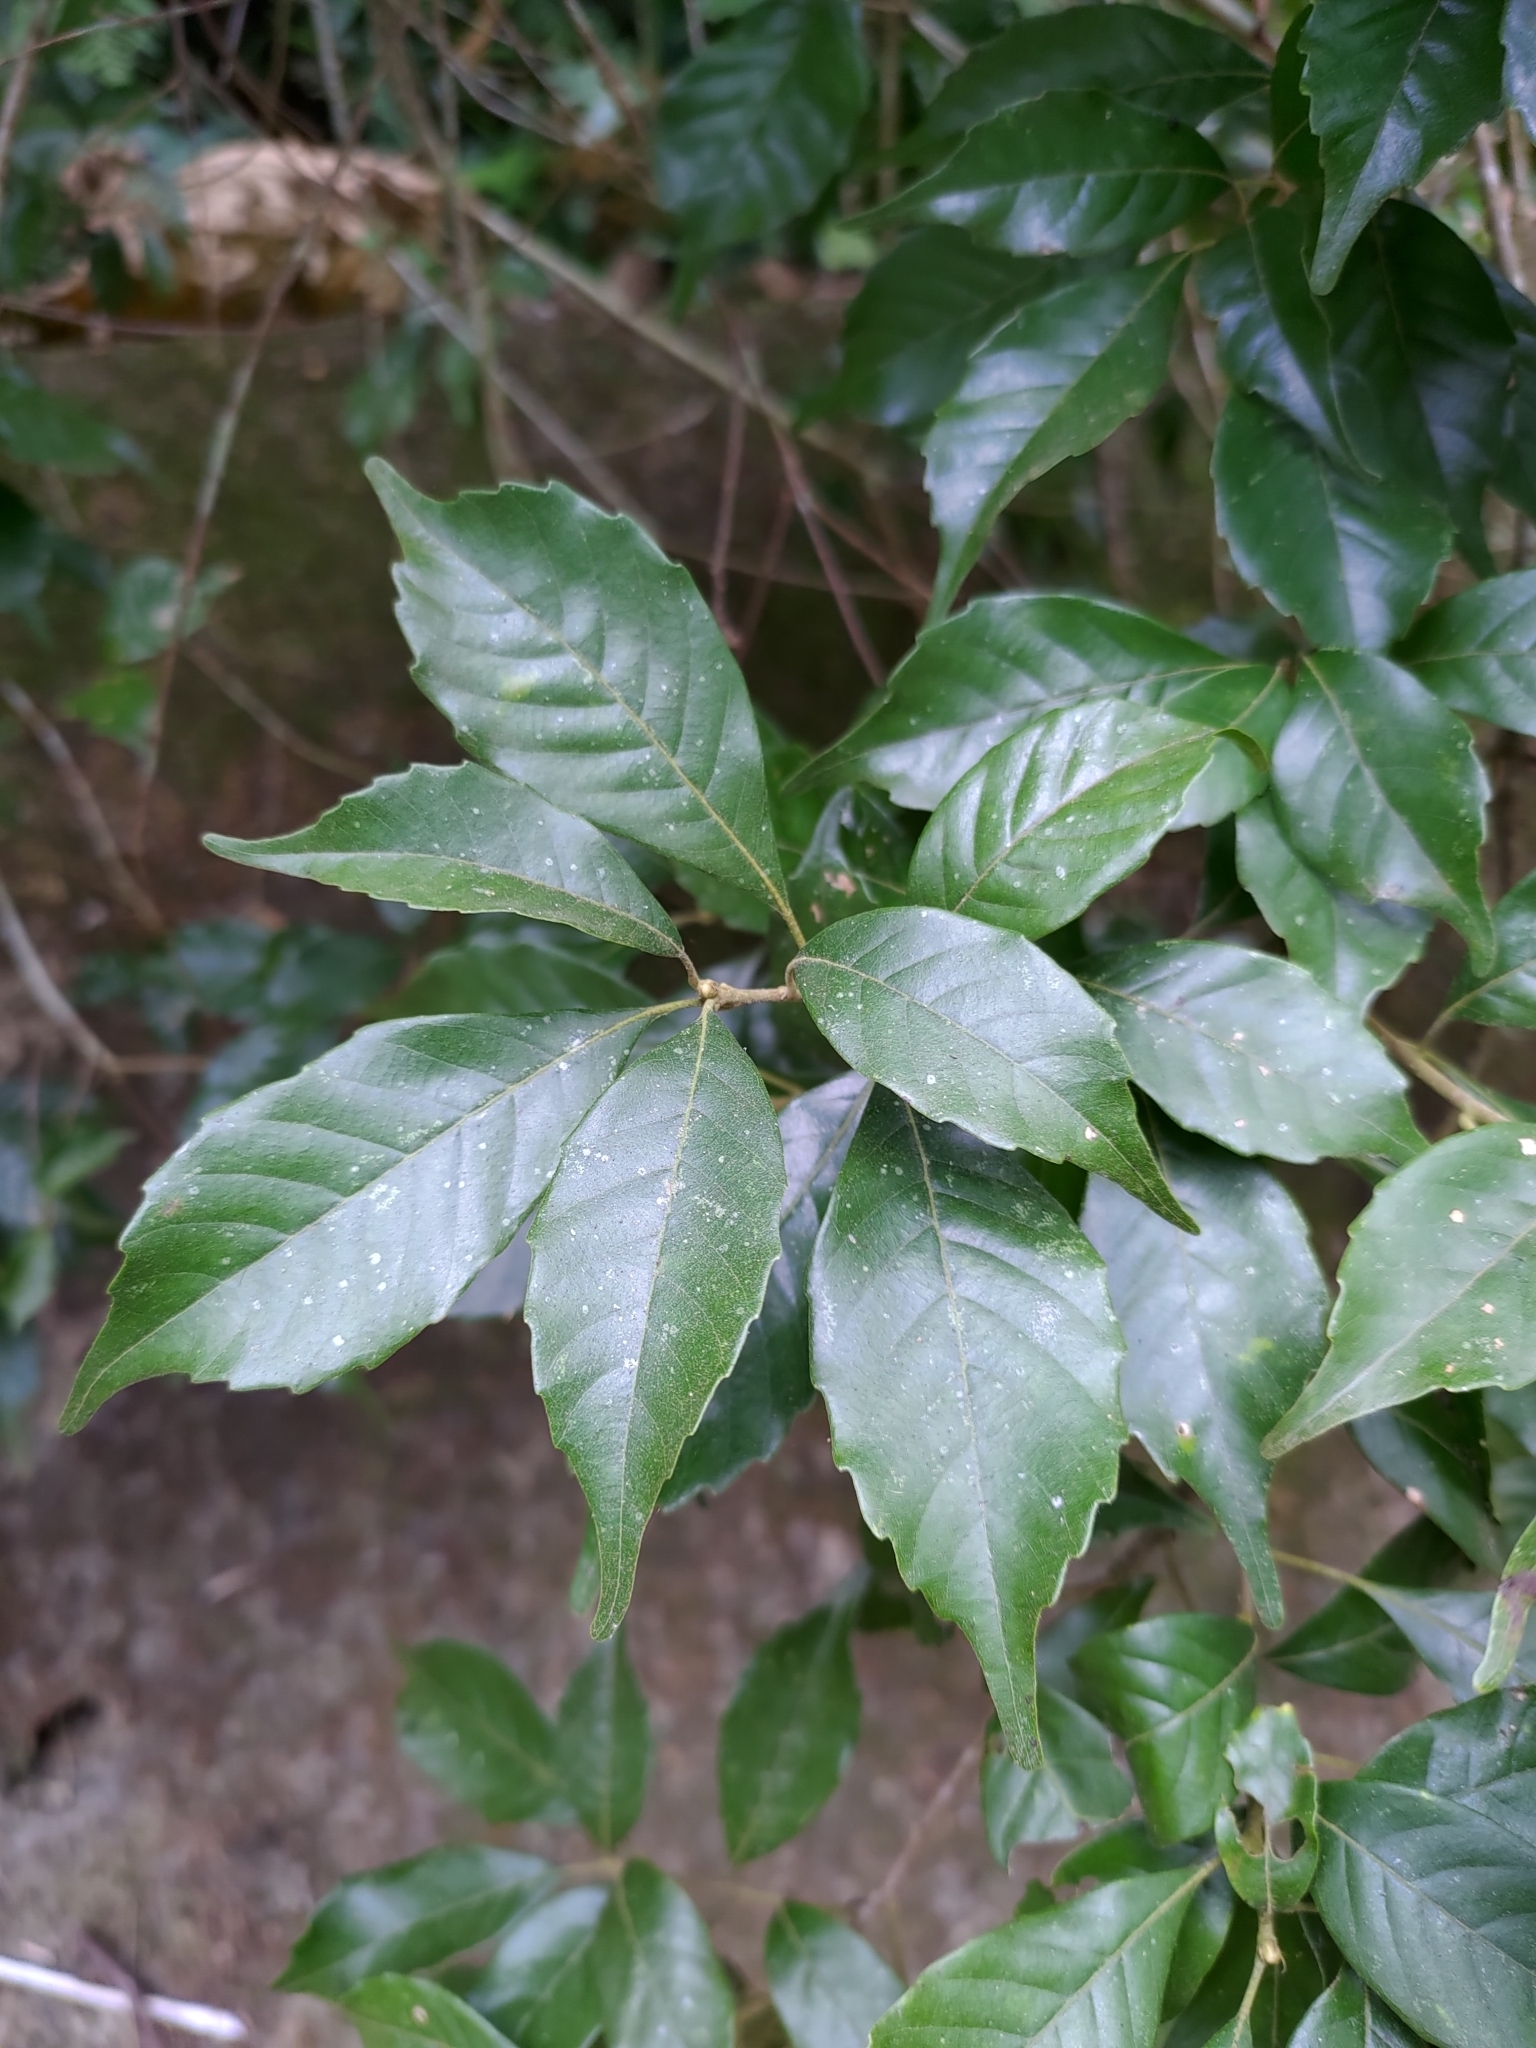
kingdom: Plantae
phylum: Tracheophyta
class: Magnoliopsida
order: Fagales
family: Fagaceae
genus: Lithocarpus
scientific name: Lithocarpus konishii
